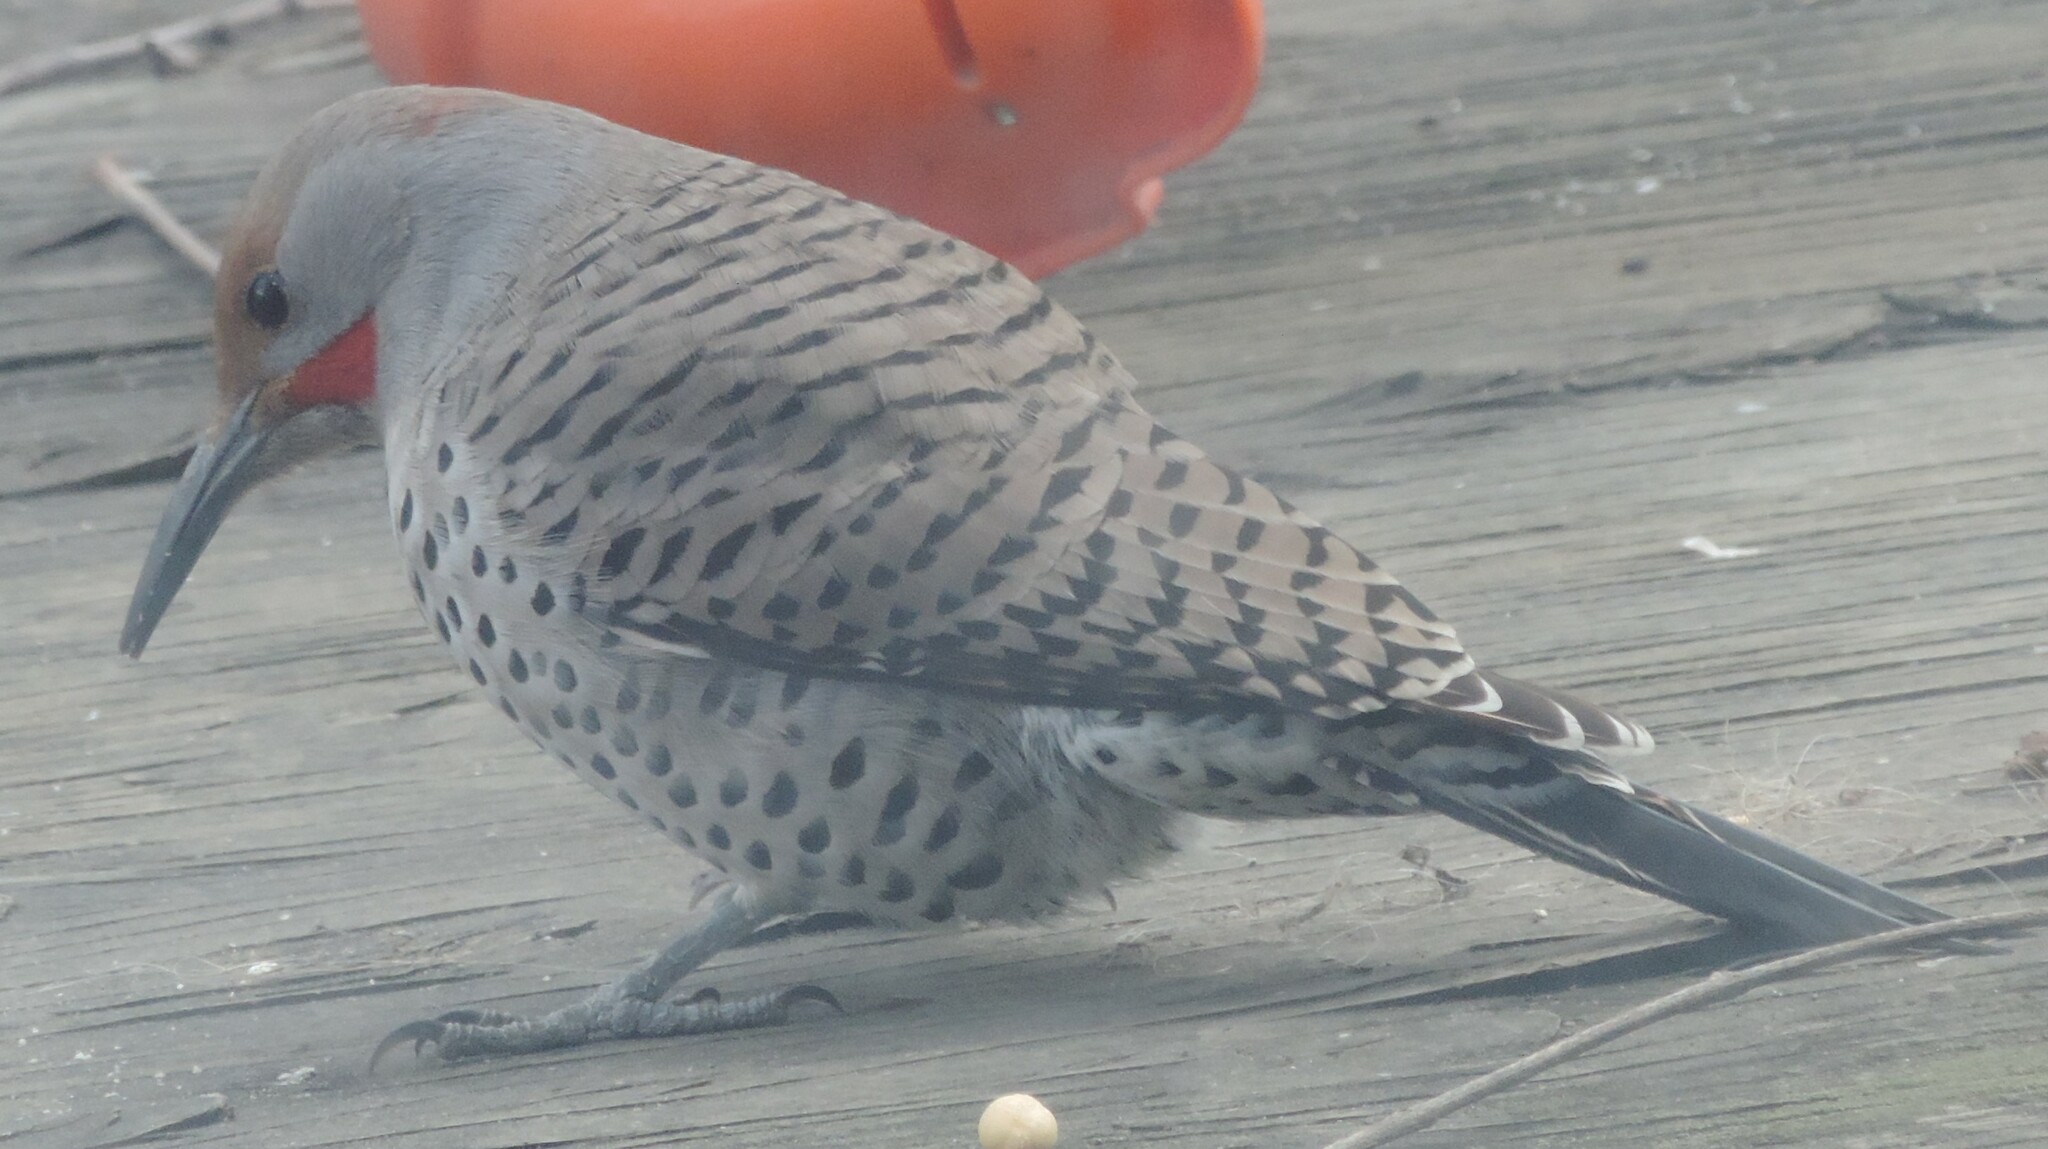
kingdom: Animalia
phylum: Chordata
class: Aves
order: Piciformes
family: Picidae
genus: Colaptes
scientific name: Colaptes
